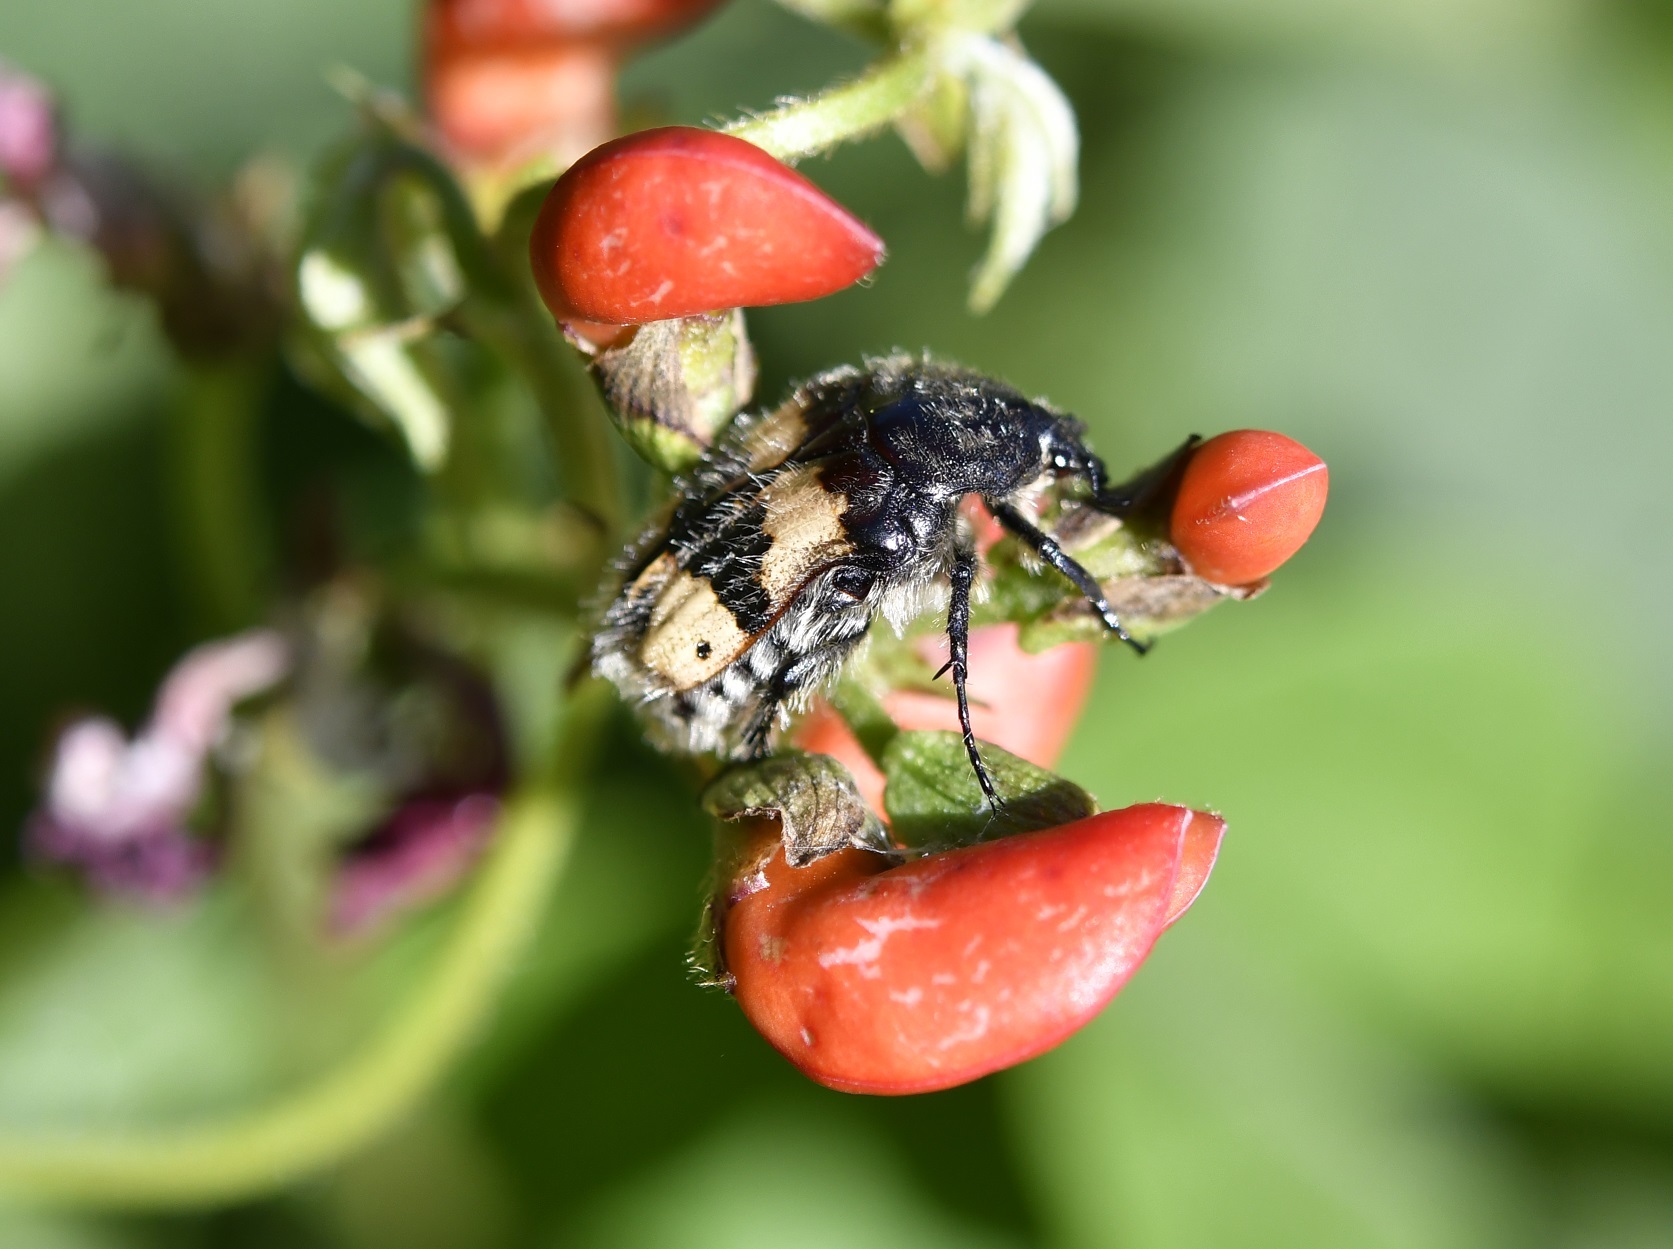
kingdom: Animalia
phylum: Arthropoda
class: Insecta
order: Coleoptera
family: Scarabaeidae
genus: Euphoria
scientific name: Euphoria basalis
